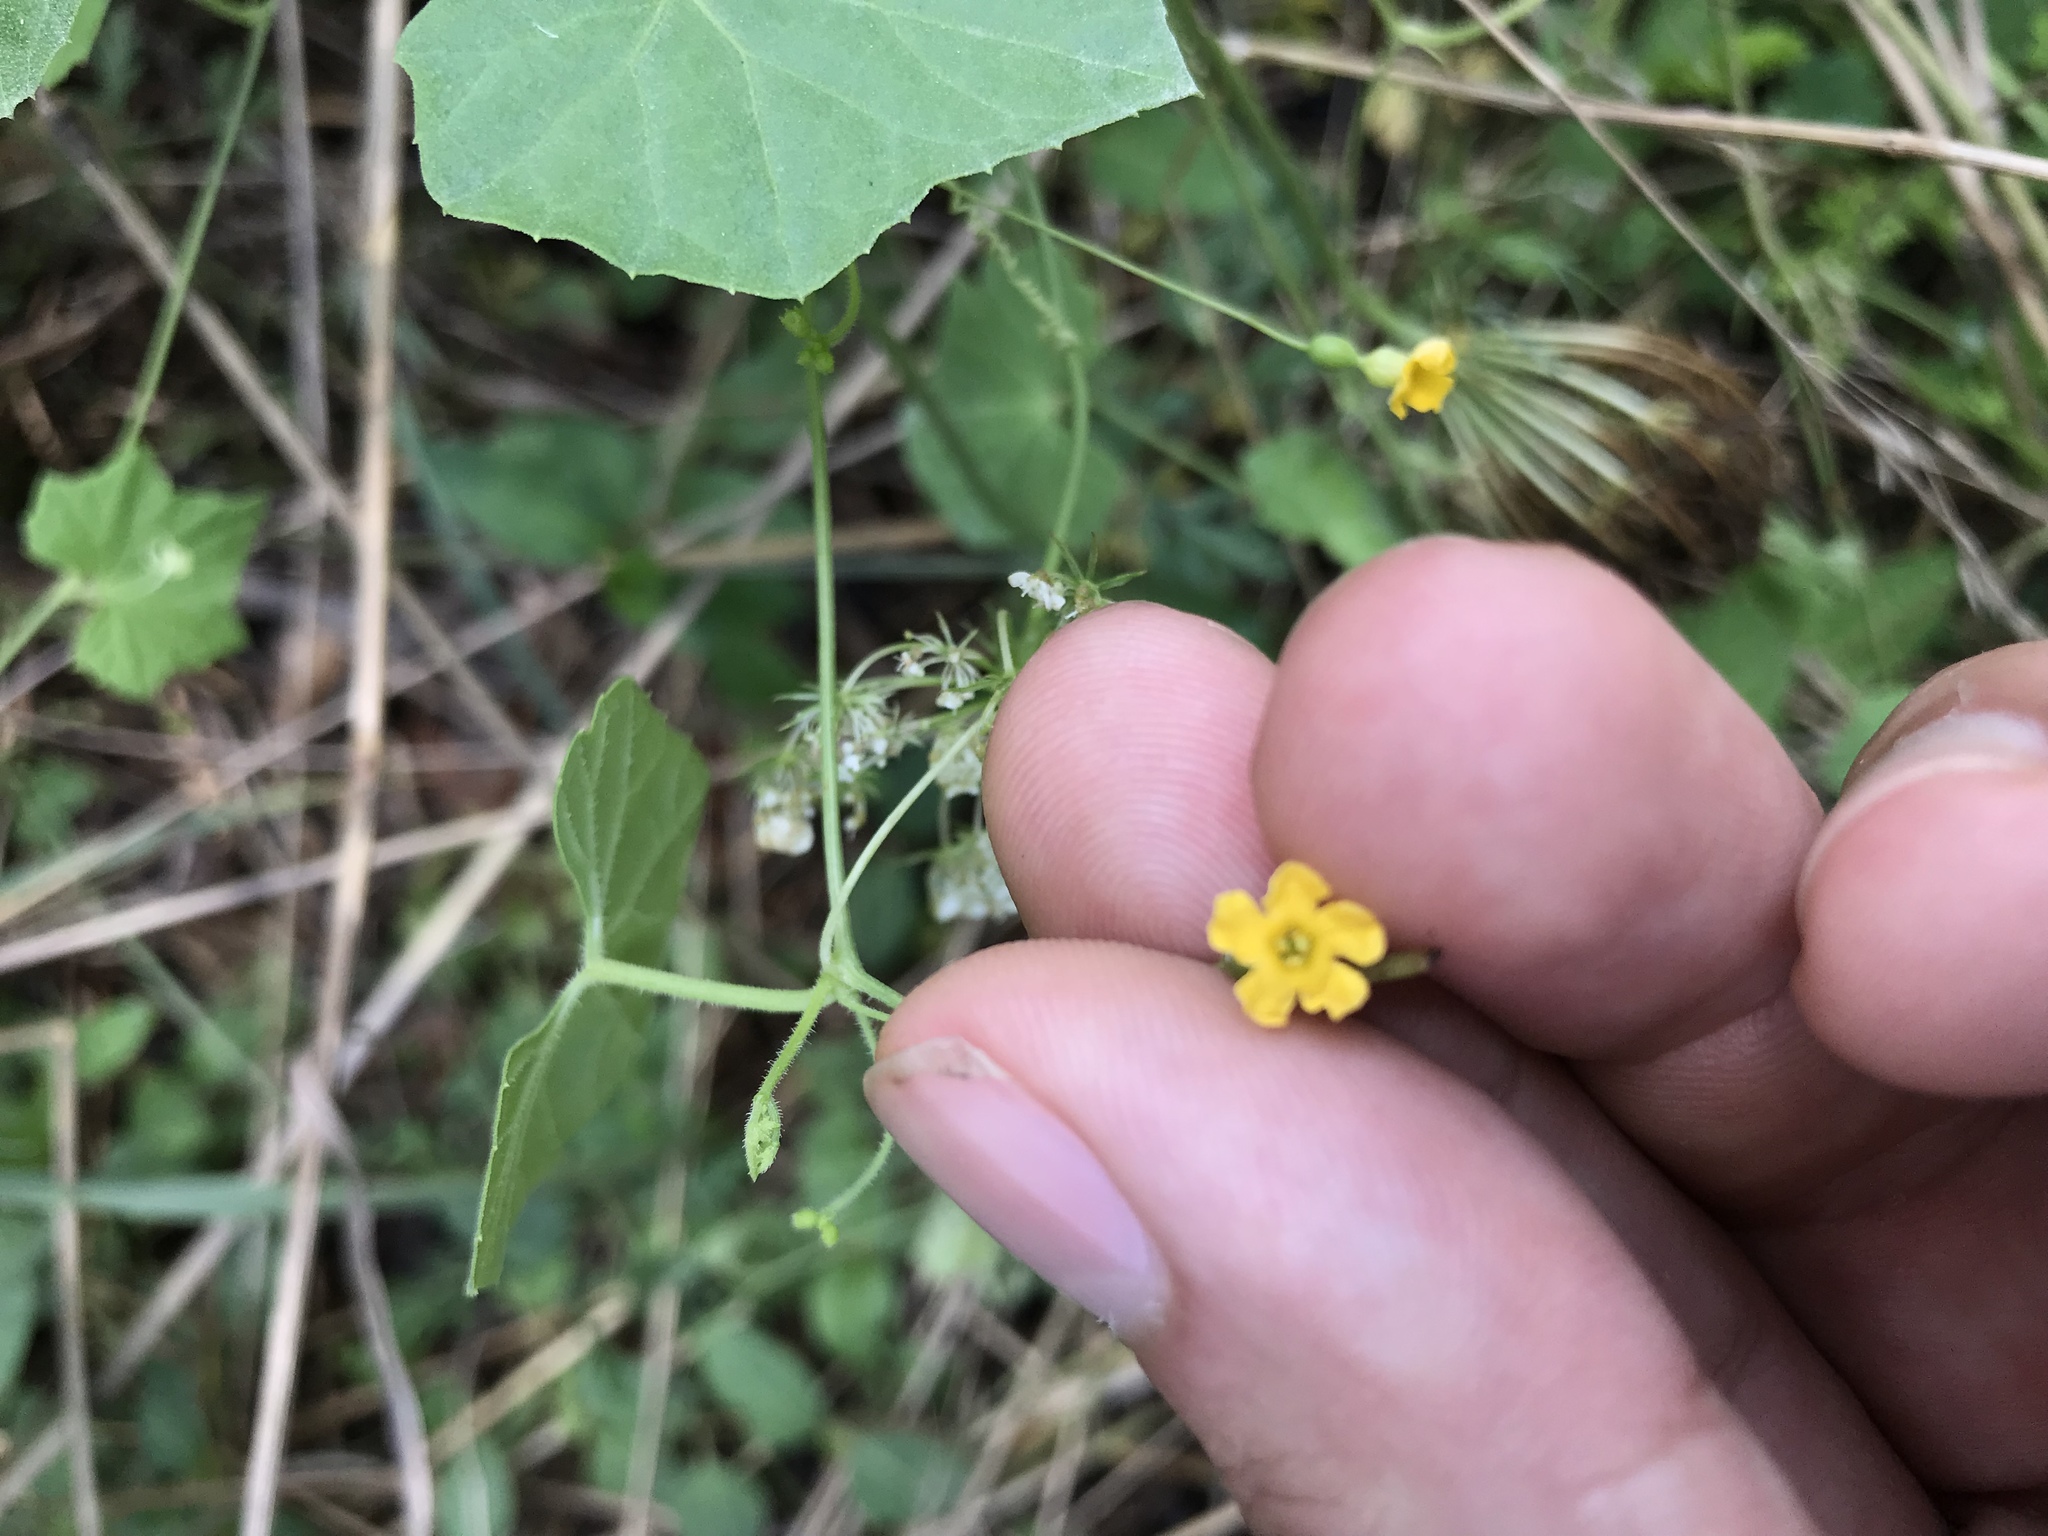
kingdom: Plantae
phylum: Tracheophyta
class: Magnoliopsida
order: Cucurbitales
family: Cucurbitaceae
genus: Melothria
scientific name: Melothria pendula
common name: Creeping-cucumber
